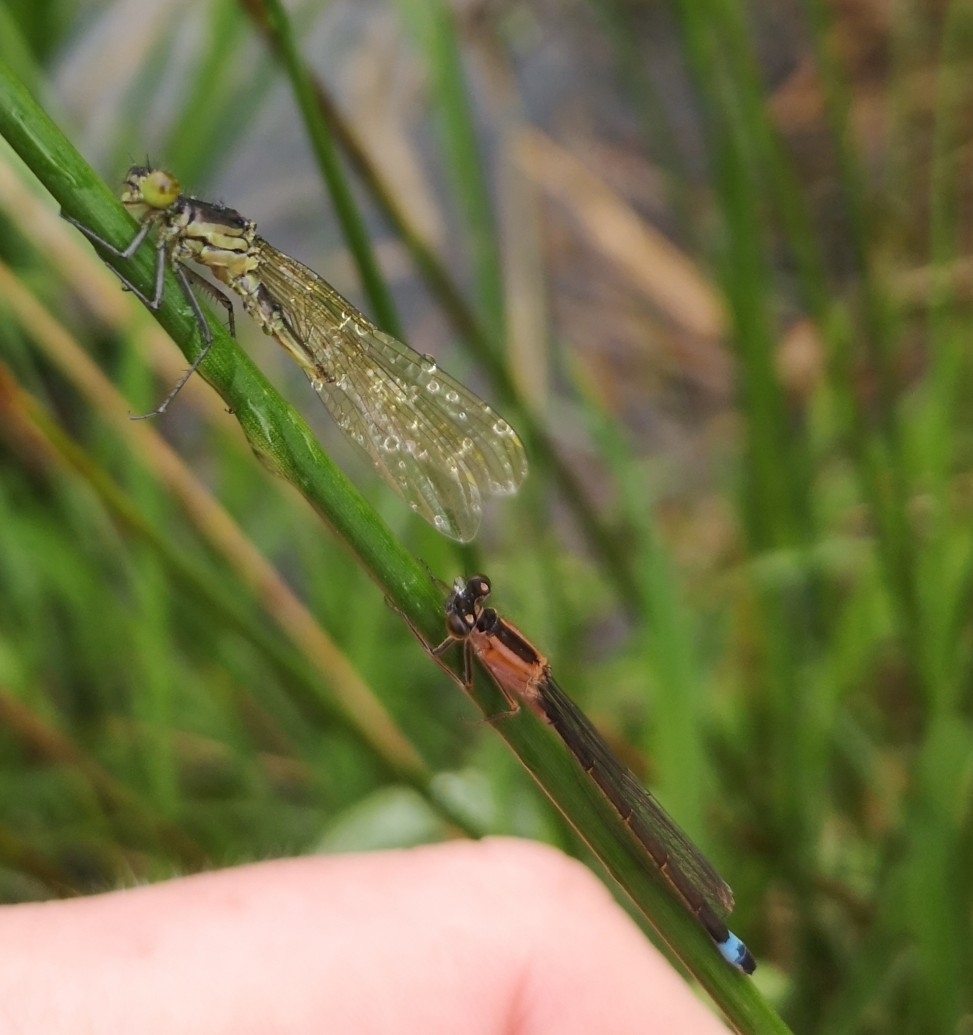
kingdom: Animalia
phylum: Arthropoda
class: Insecta
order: Odonata
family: Coenagrionidae
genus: Ischnura
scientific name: Ischnura elegans
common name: Blue-tailed damselfly
